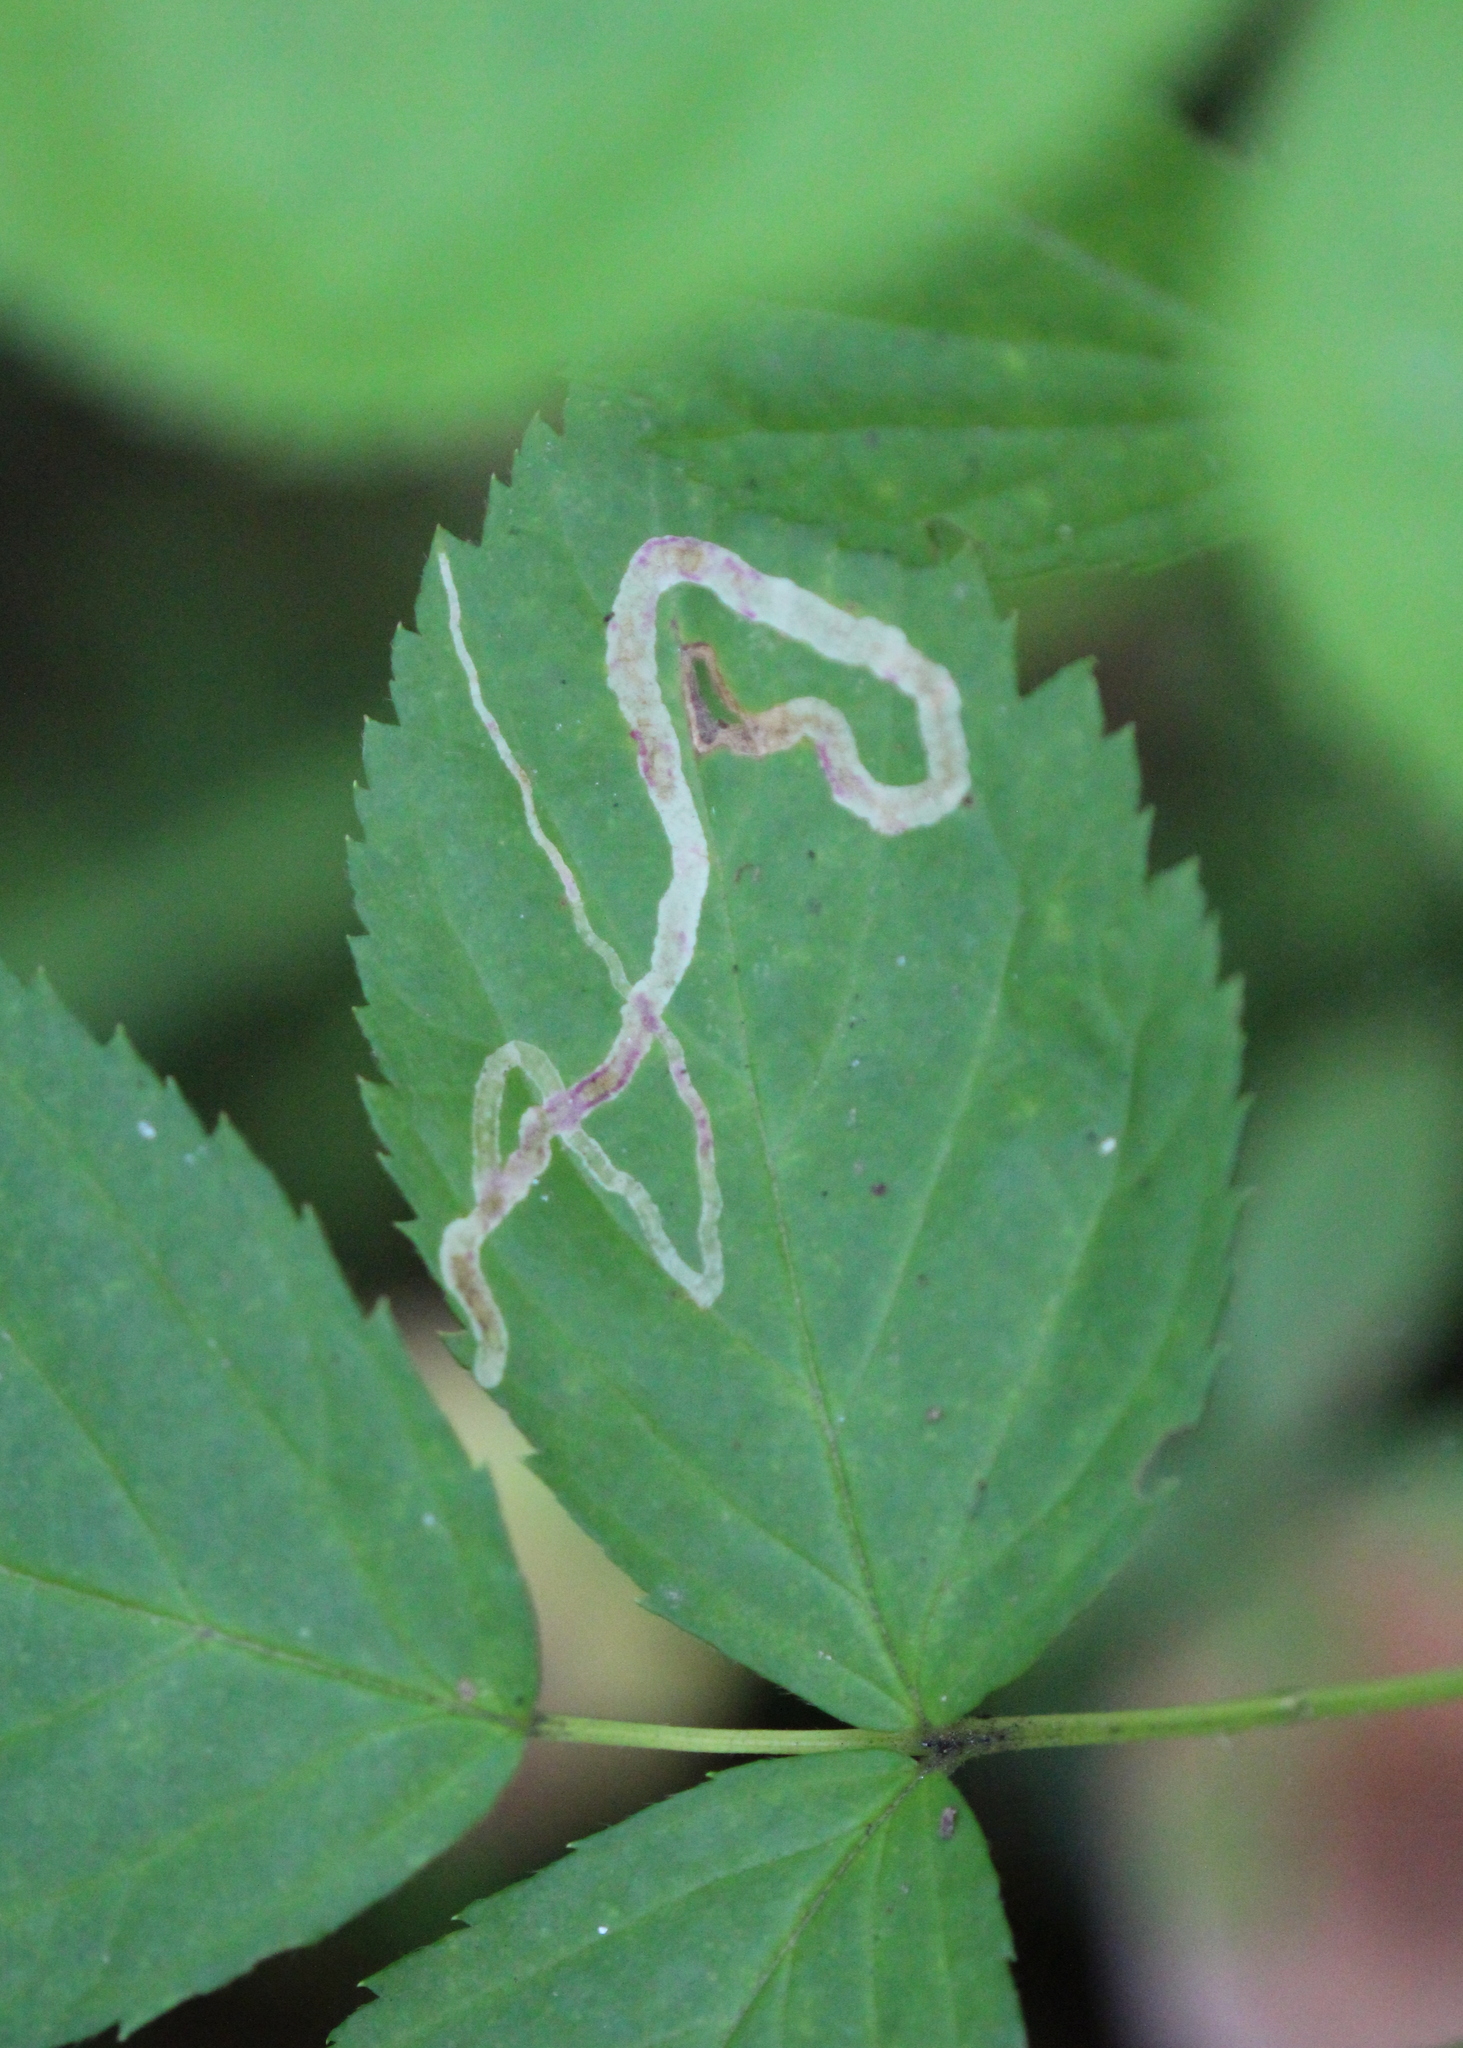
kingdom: Animalia
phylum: Arthropoda
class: Insecta
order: Diptera
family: Agromyzidae
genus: Agromyza
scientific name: Agromyza vockerothi
